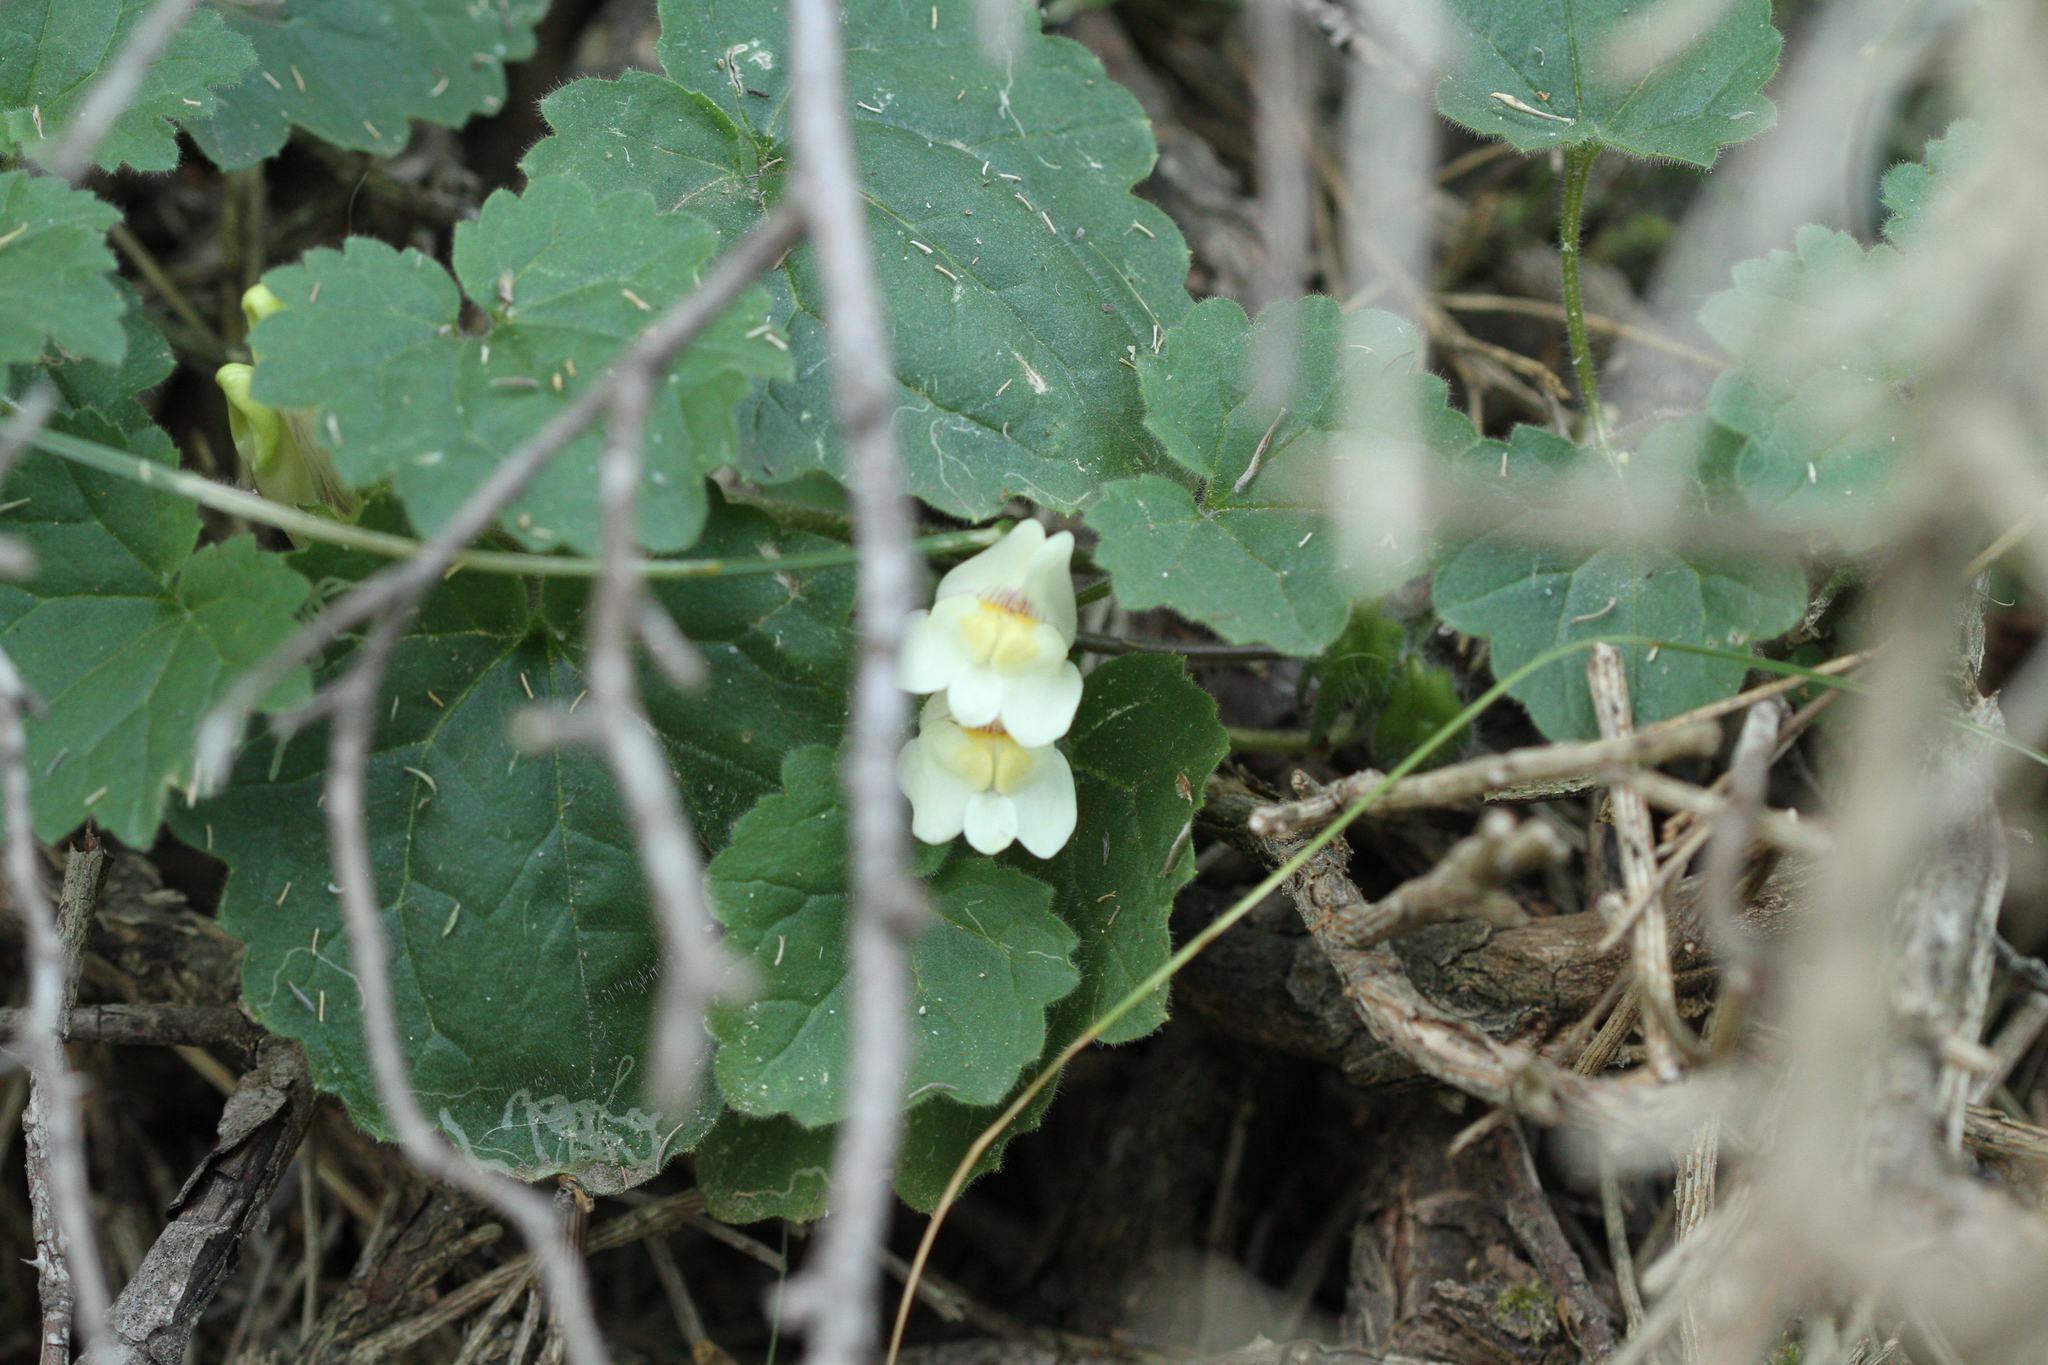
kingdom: Plantae
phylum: Tracheophyta
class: Magnoliopsida
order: Lamiales
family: Plantaginaceae
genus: Asarina
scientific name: Asarina procumbens
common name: Trailing snapdragon
